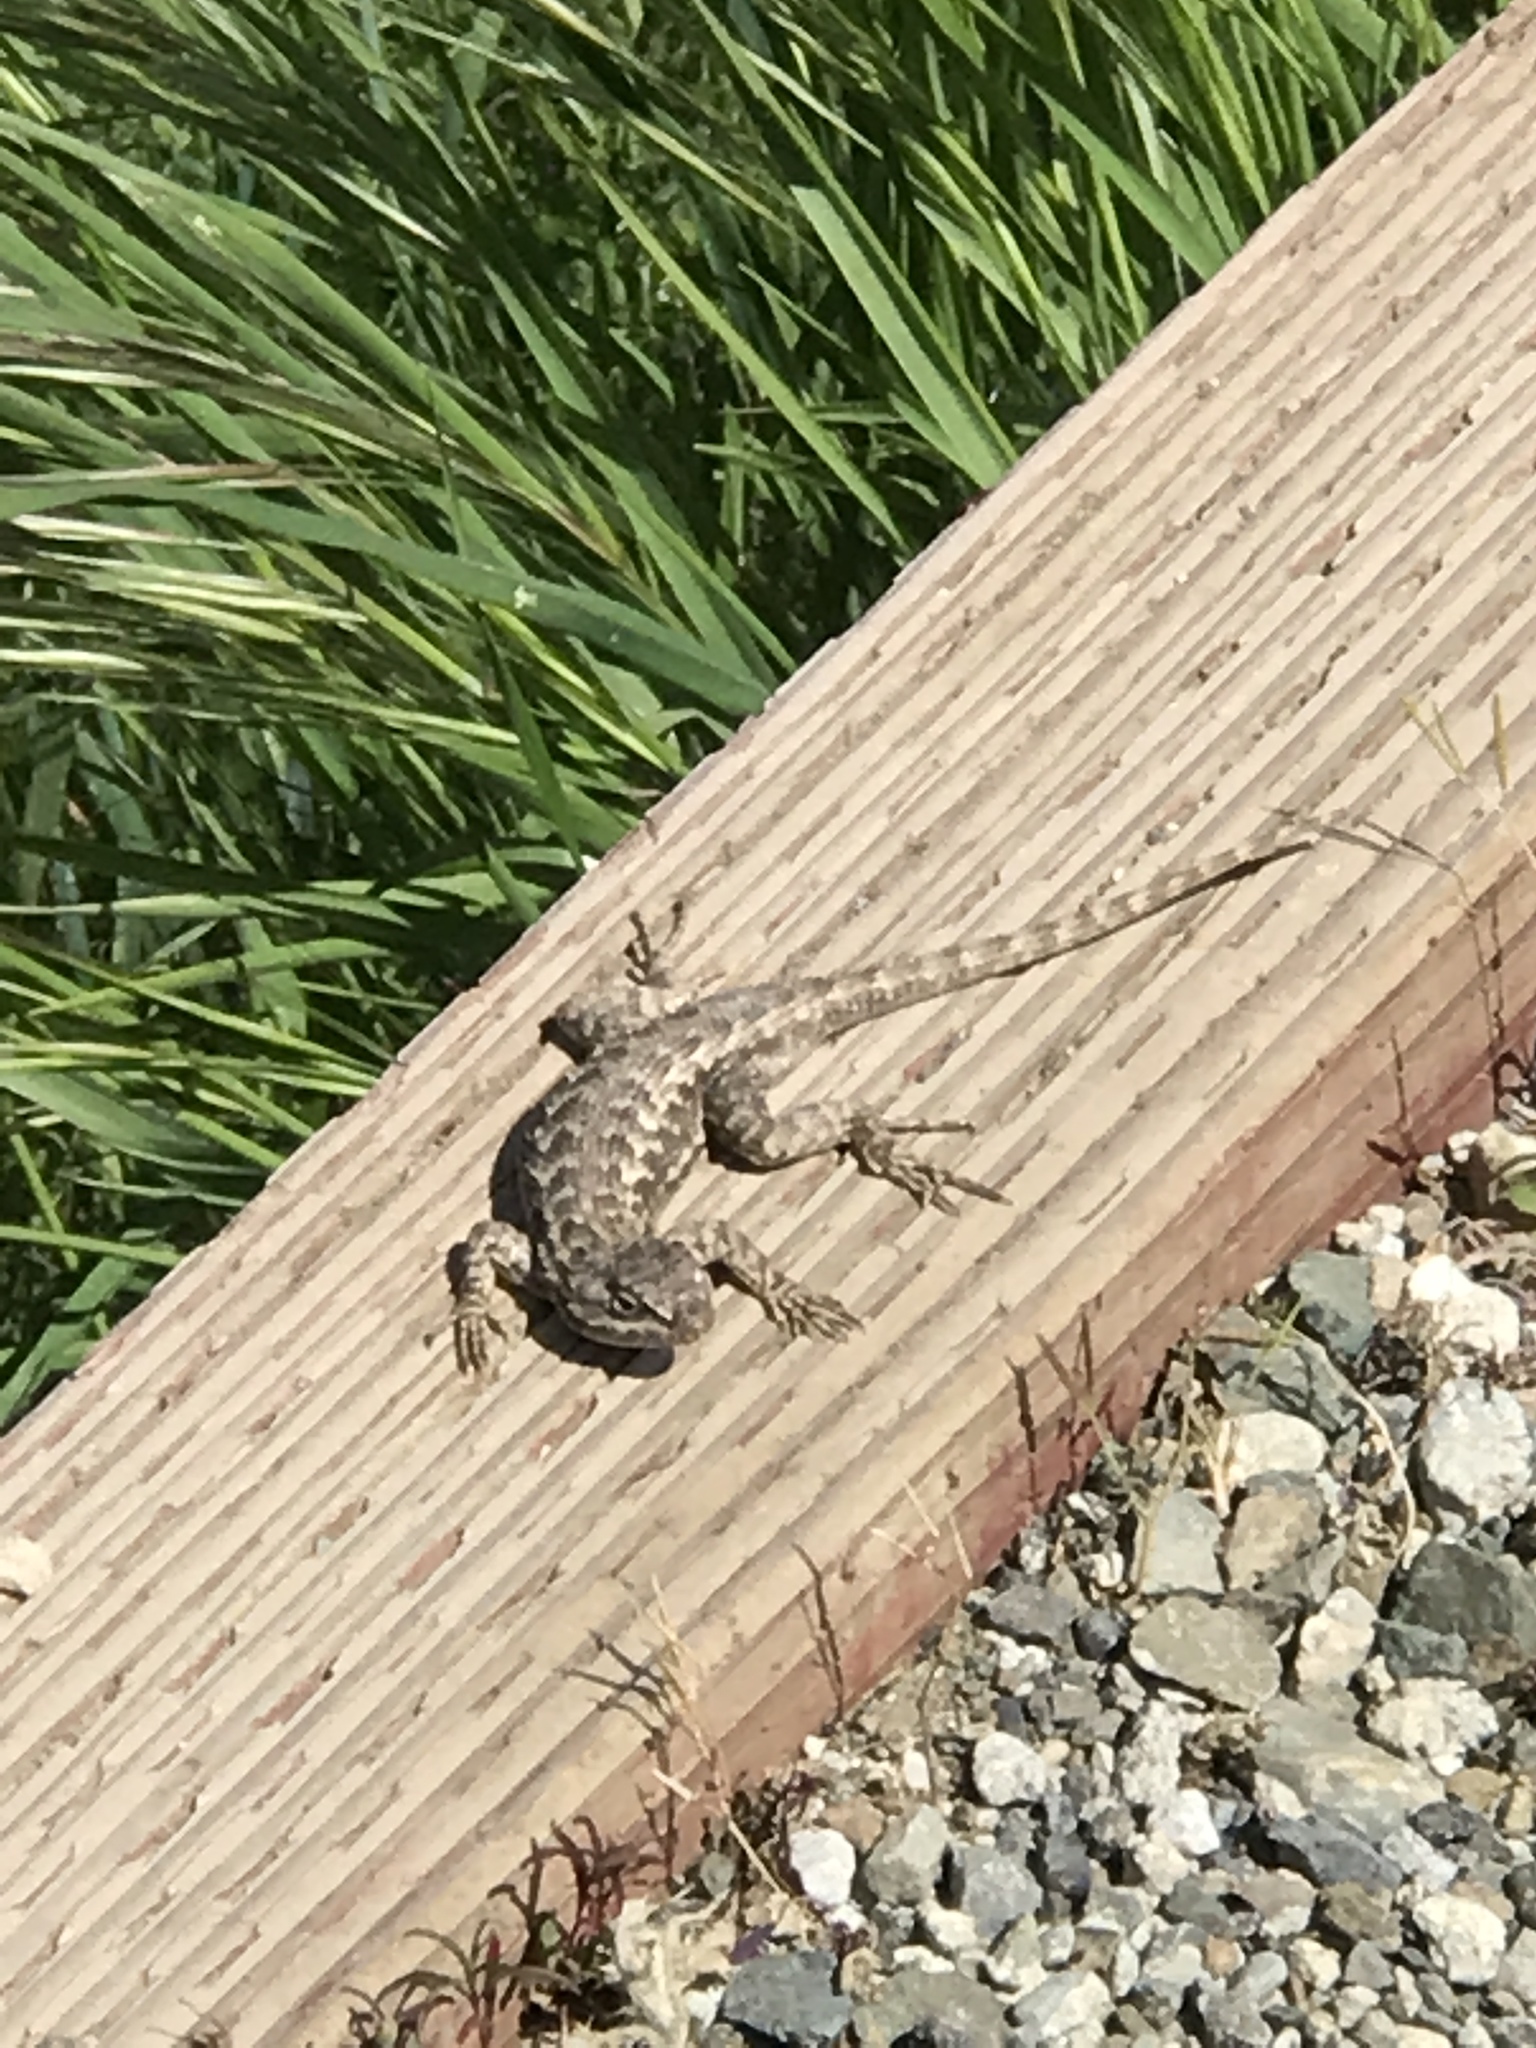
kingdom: Animalia
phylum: Chordata
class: Squamata
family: Phrynosomatidae
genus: Sceloporus
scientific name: Sceloporus occidentalis
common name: Western fence lizard
